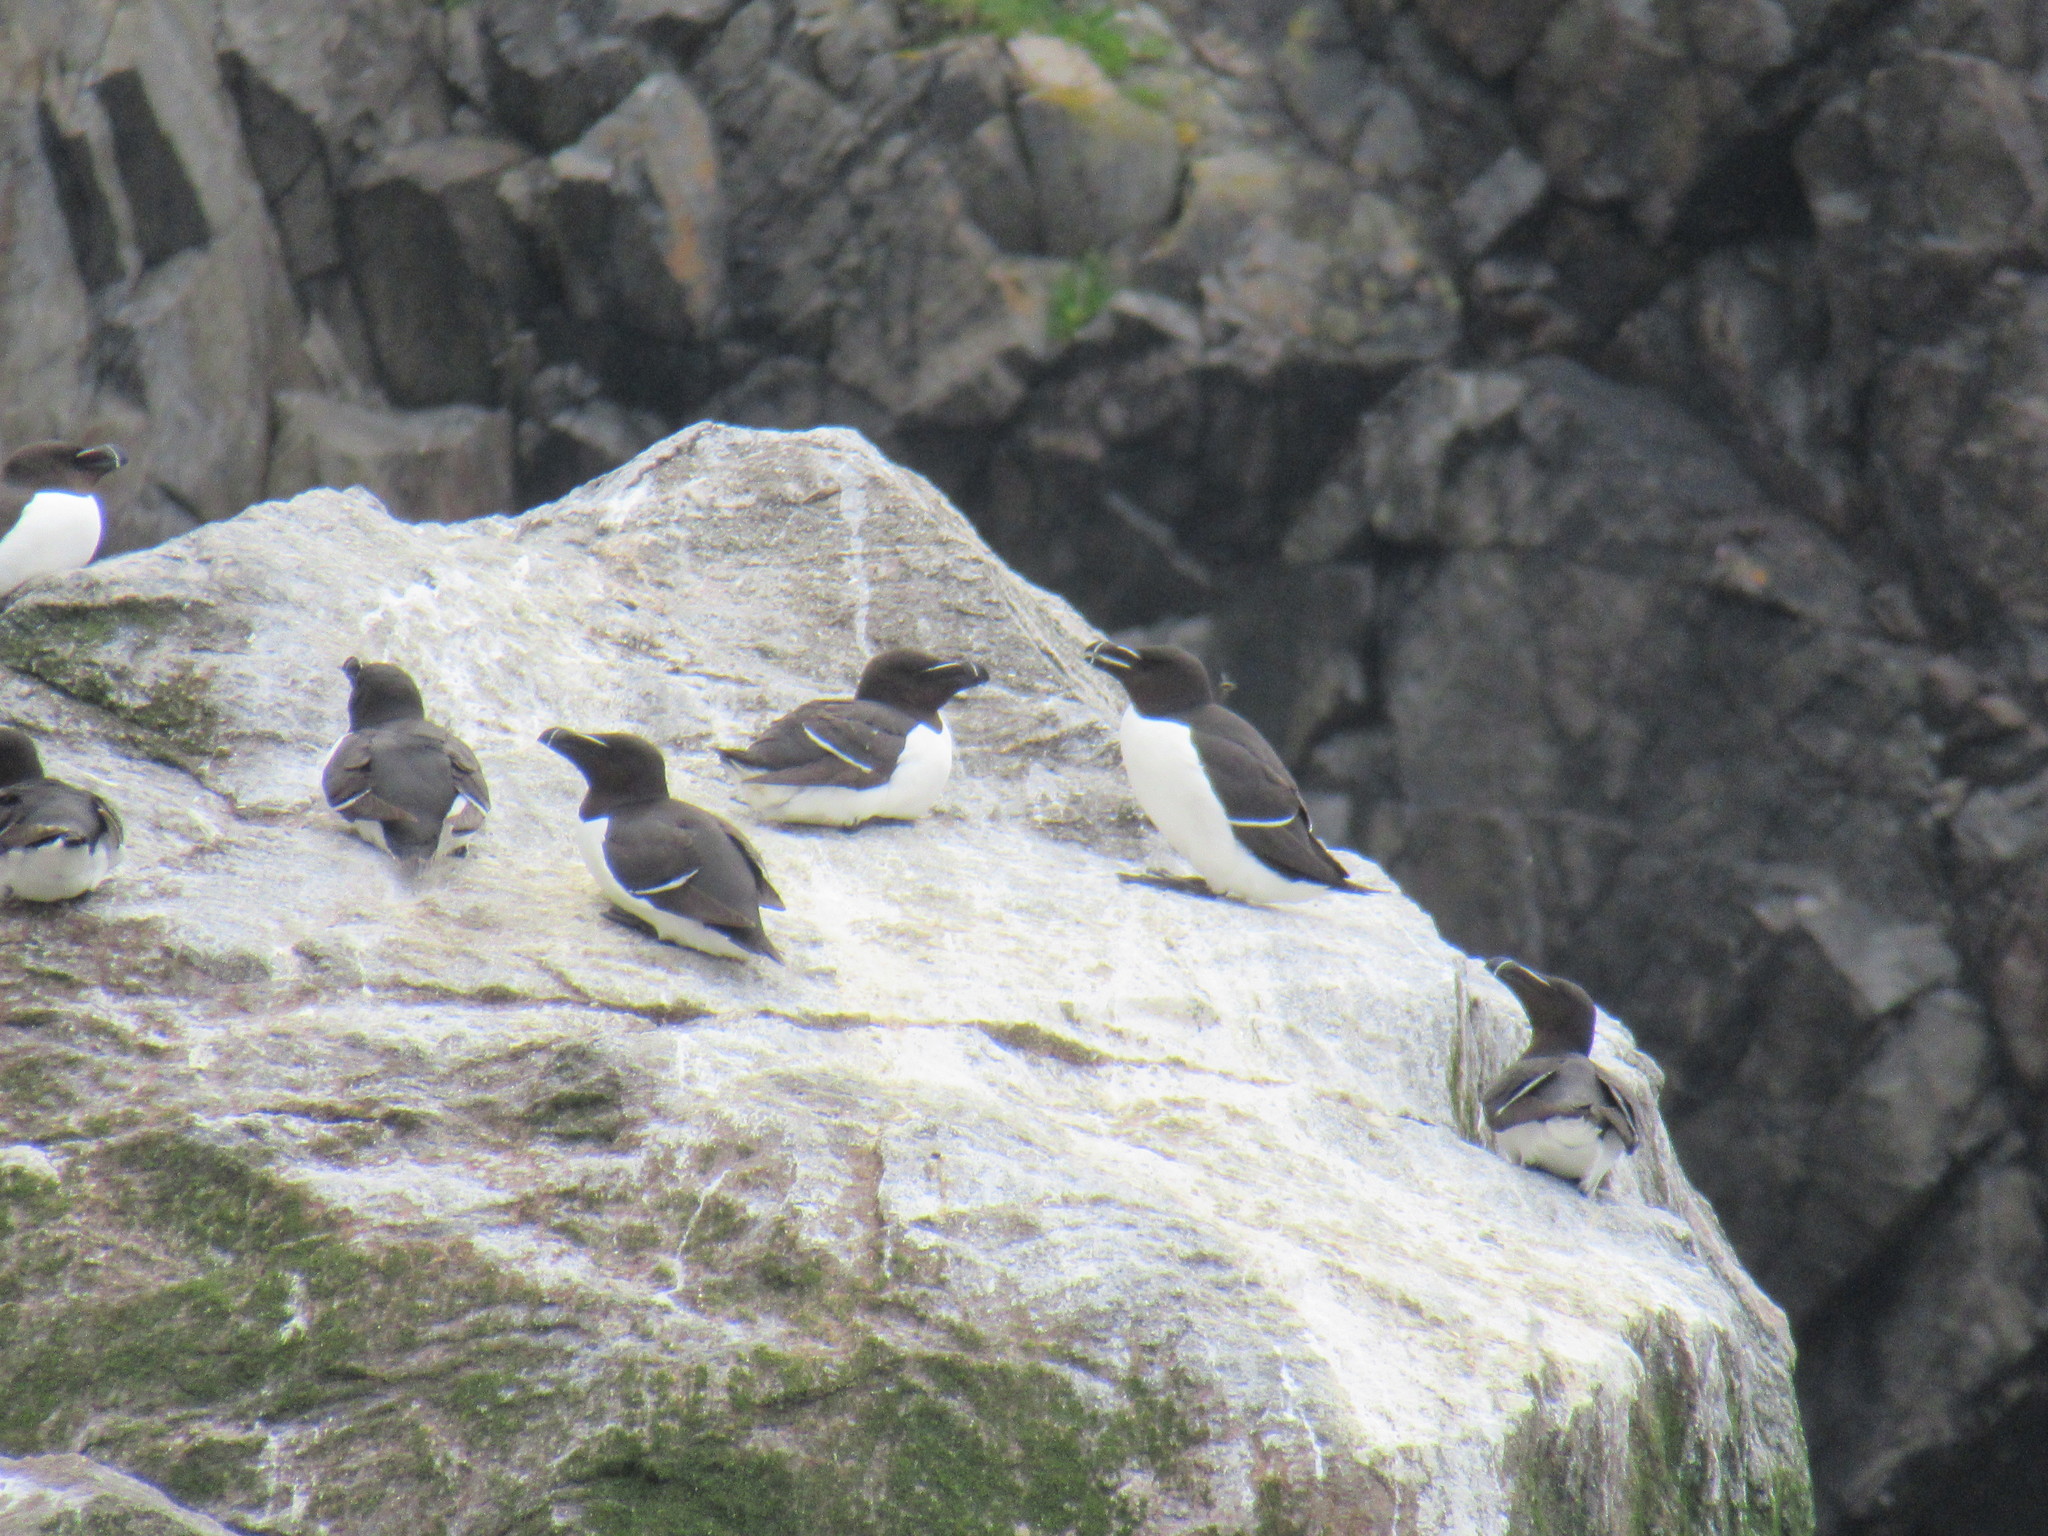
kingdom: Animalia
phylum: Chordata
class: Aves
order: Charadriiformes
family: Alcidae
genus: Alca
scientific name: Alca torda
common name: Razorbill
